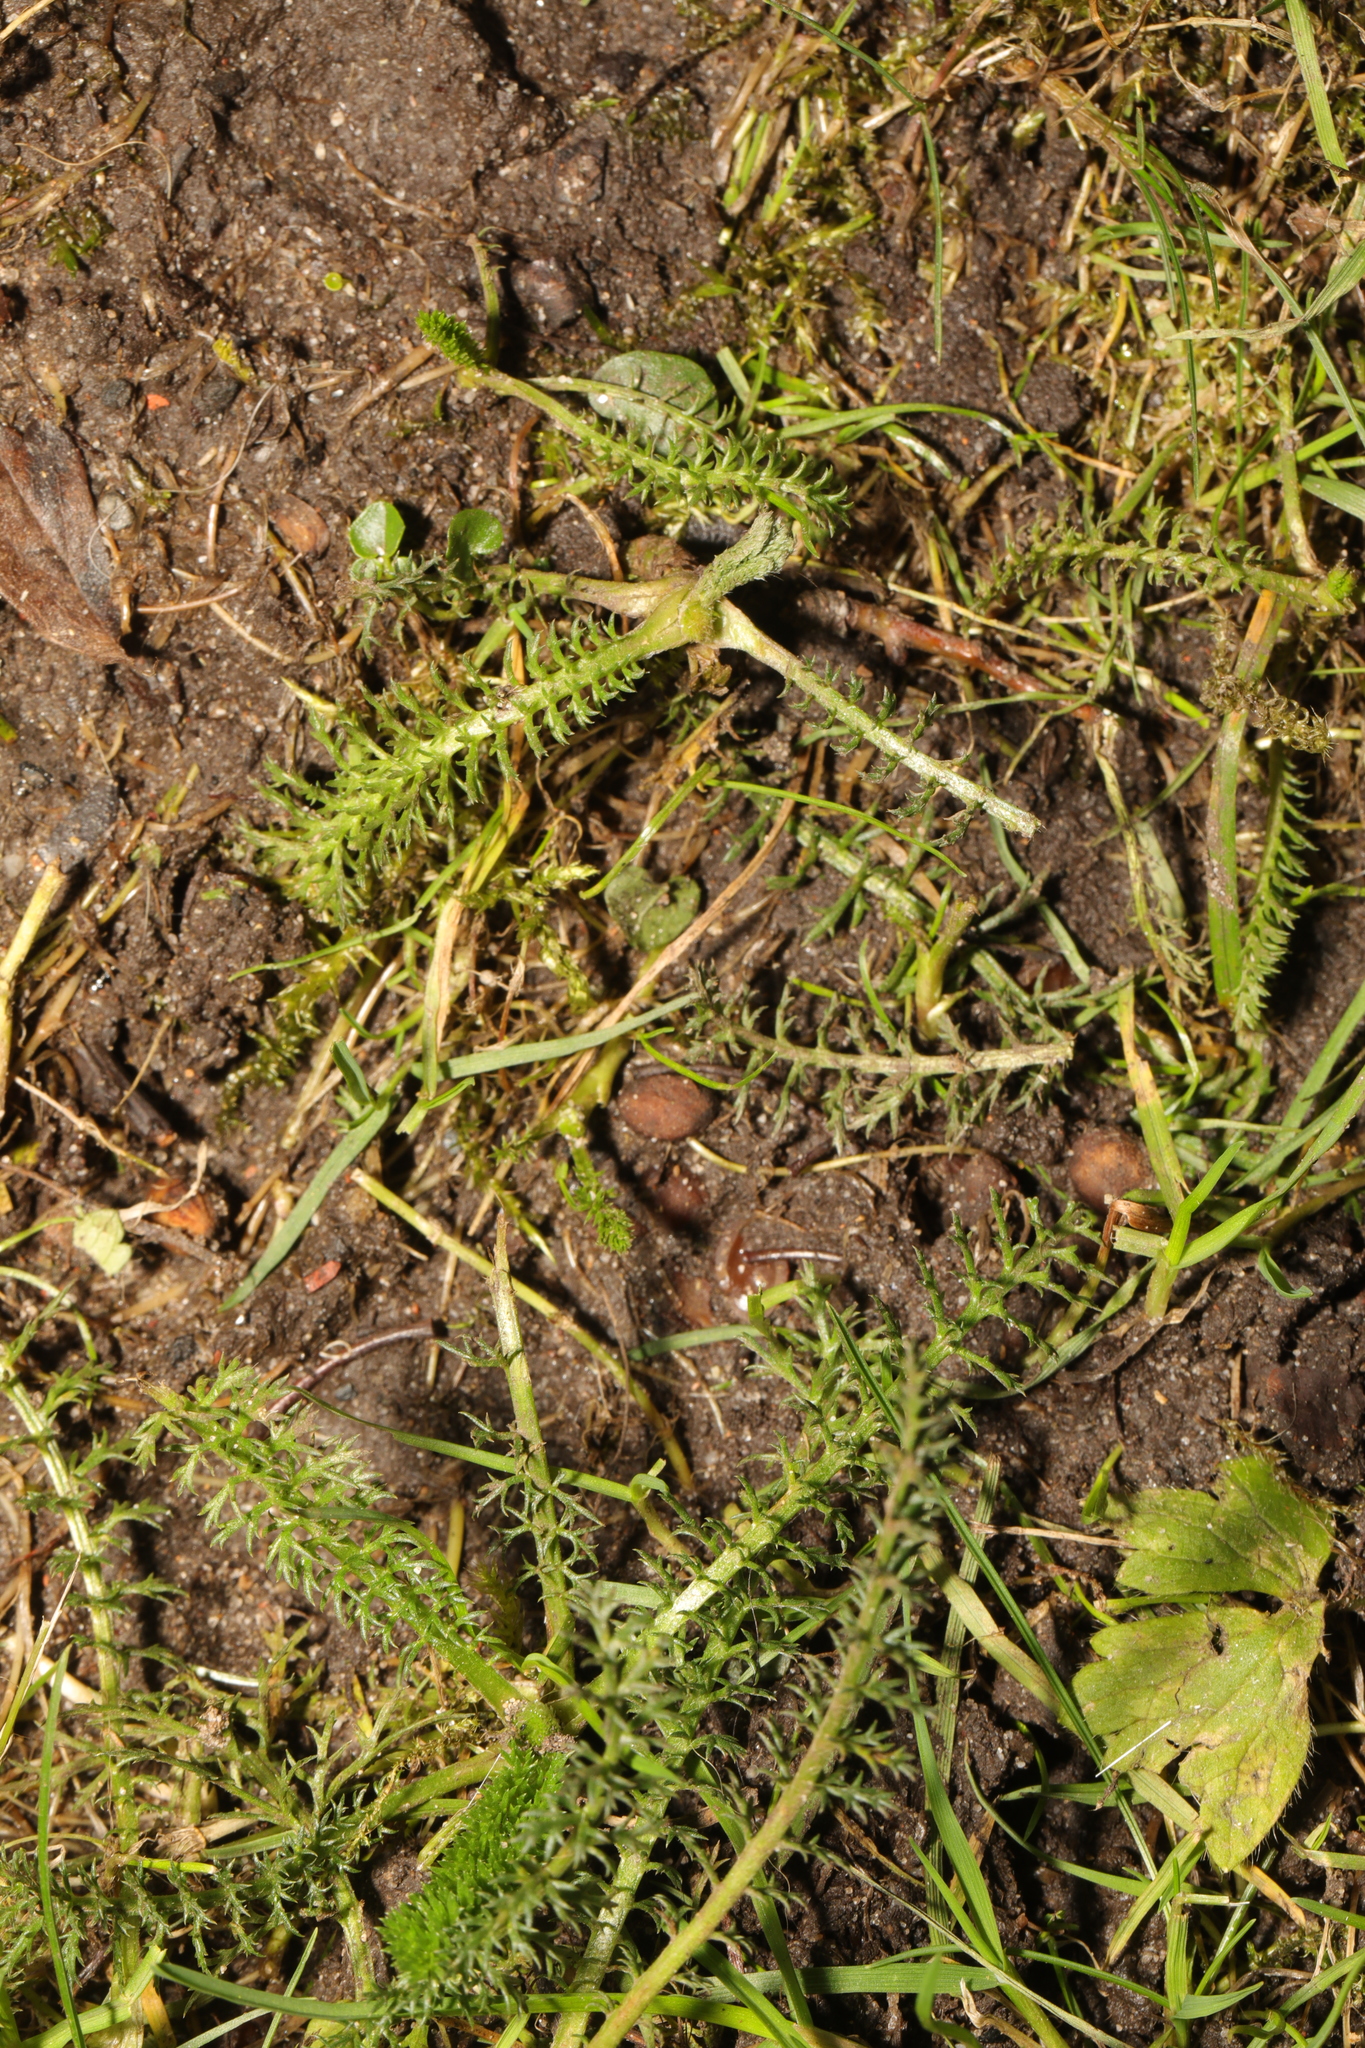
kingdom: Plantae
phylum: Tracheophyta
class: Magnoliopsida
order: Asterales
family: Asteraceae
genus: Achillea
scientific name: Achillea millefolium
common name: Yarrow
